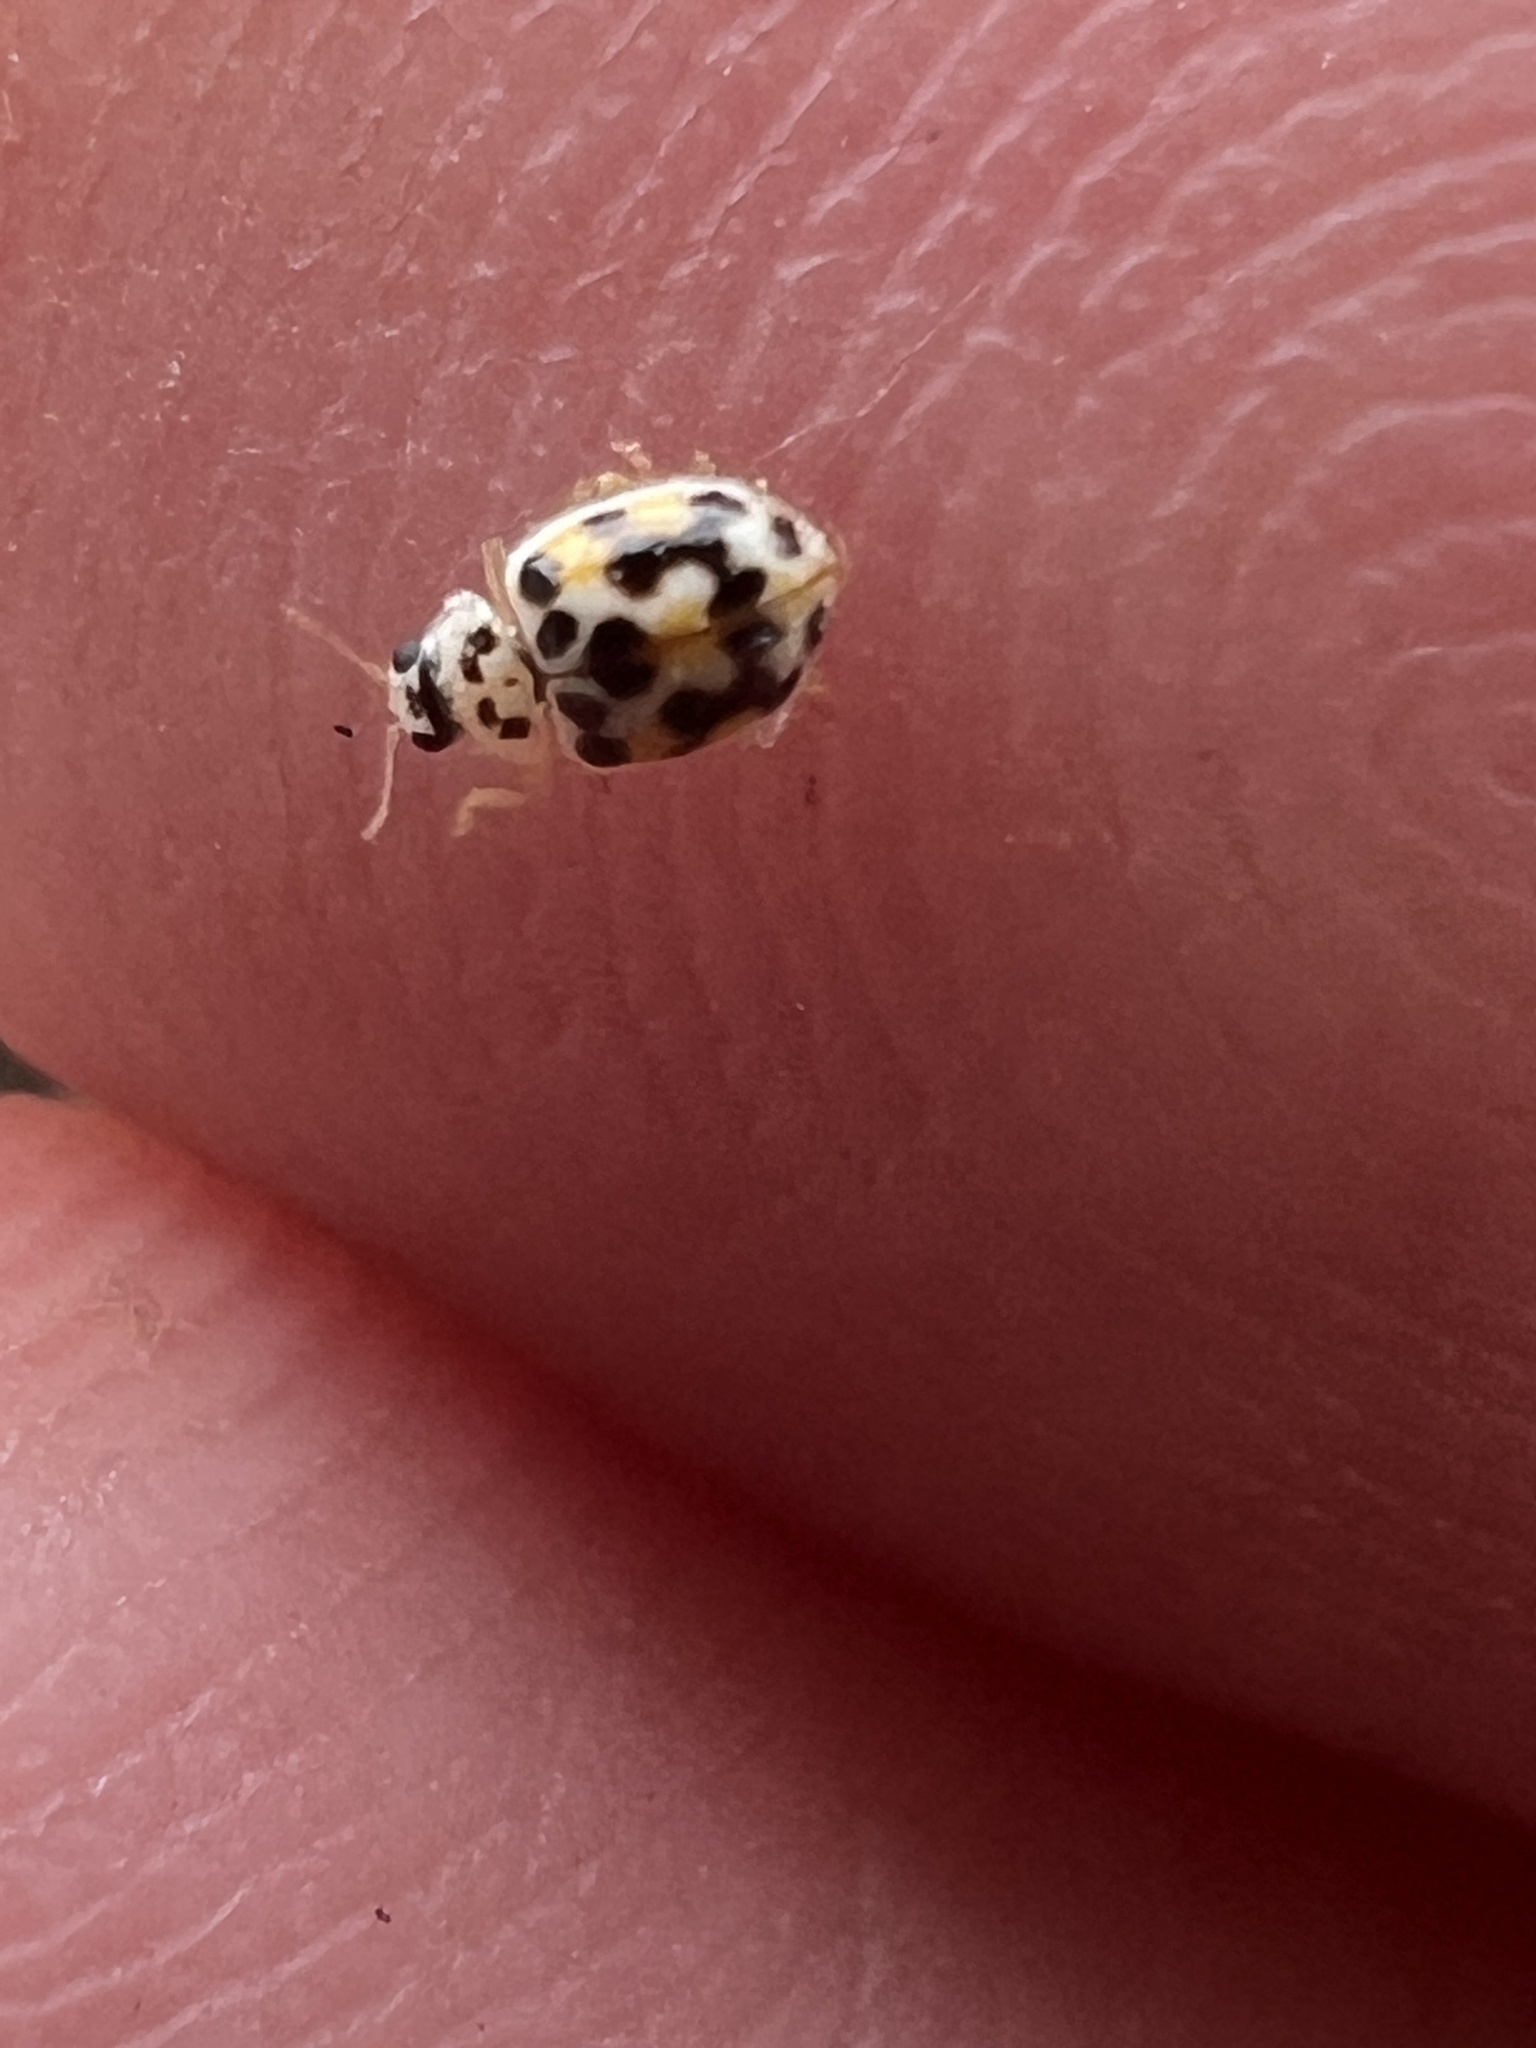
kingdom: Animalia
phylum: Arthropoda
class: Insecta
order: Coleoptera
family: Coccinellidae
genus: Psyllobora
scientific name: Psyllobora vigintimaculata
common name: Ladybird beetle
